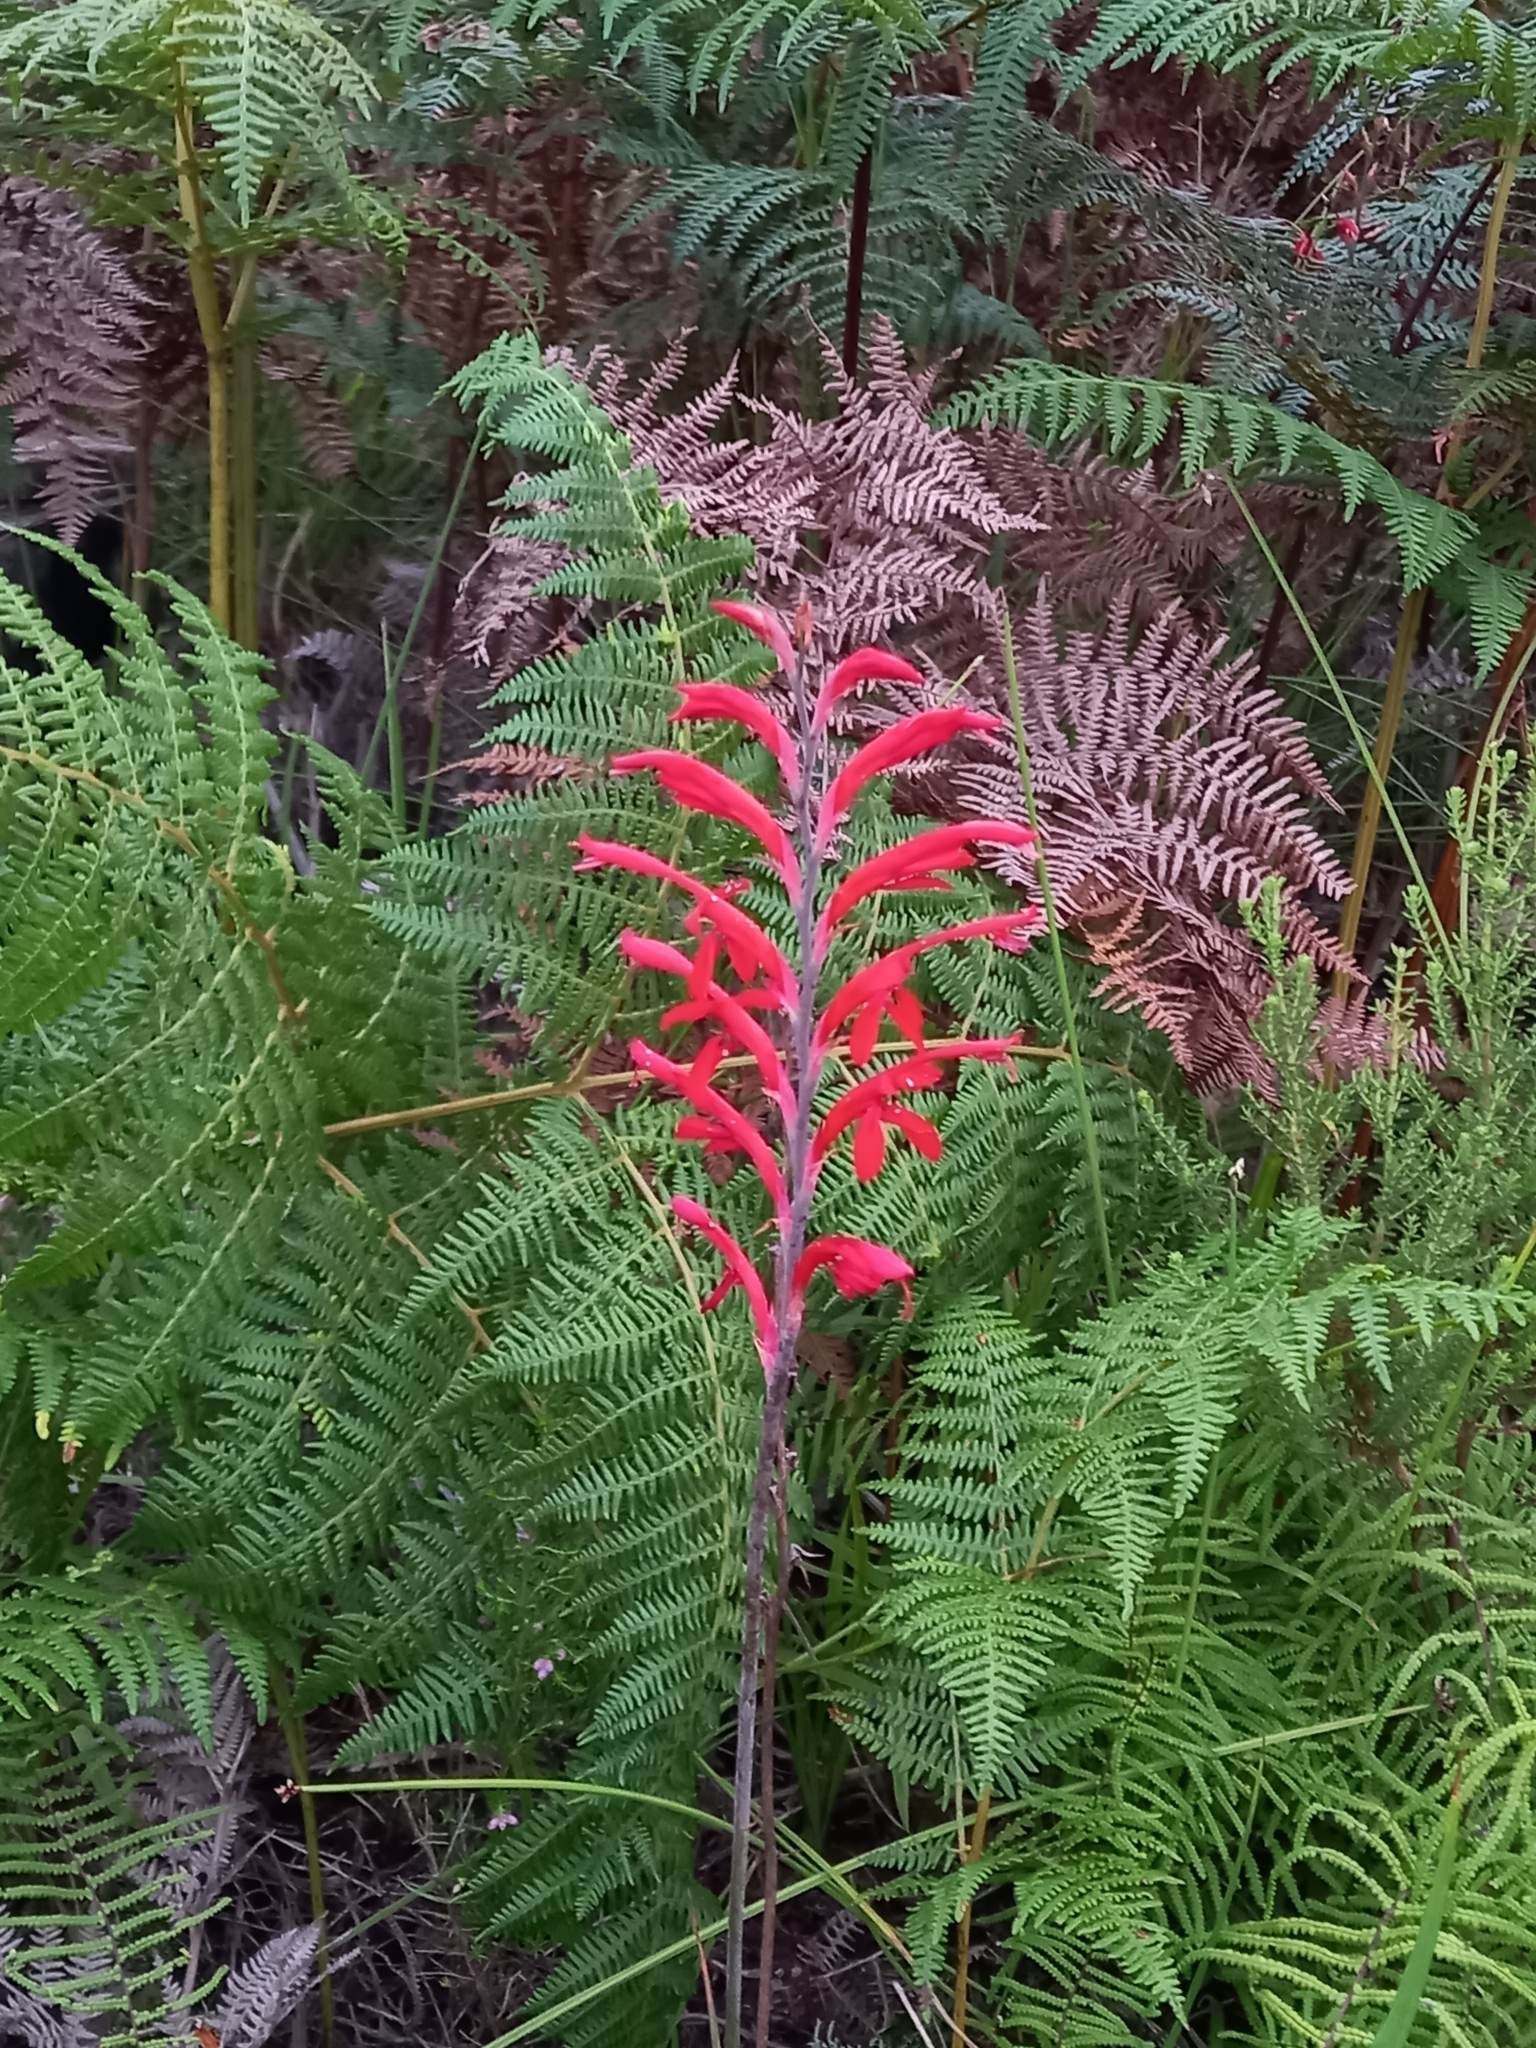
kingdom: Plantae
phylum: Tracheophyta
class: Liliopsida
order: Asparagales
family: Iridaceae
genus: Tritoniopsis
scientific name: Tritoniopsis caffra
